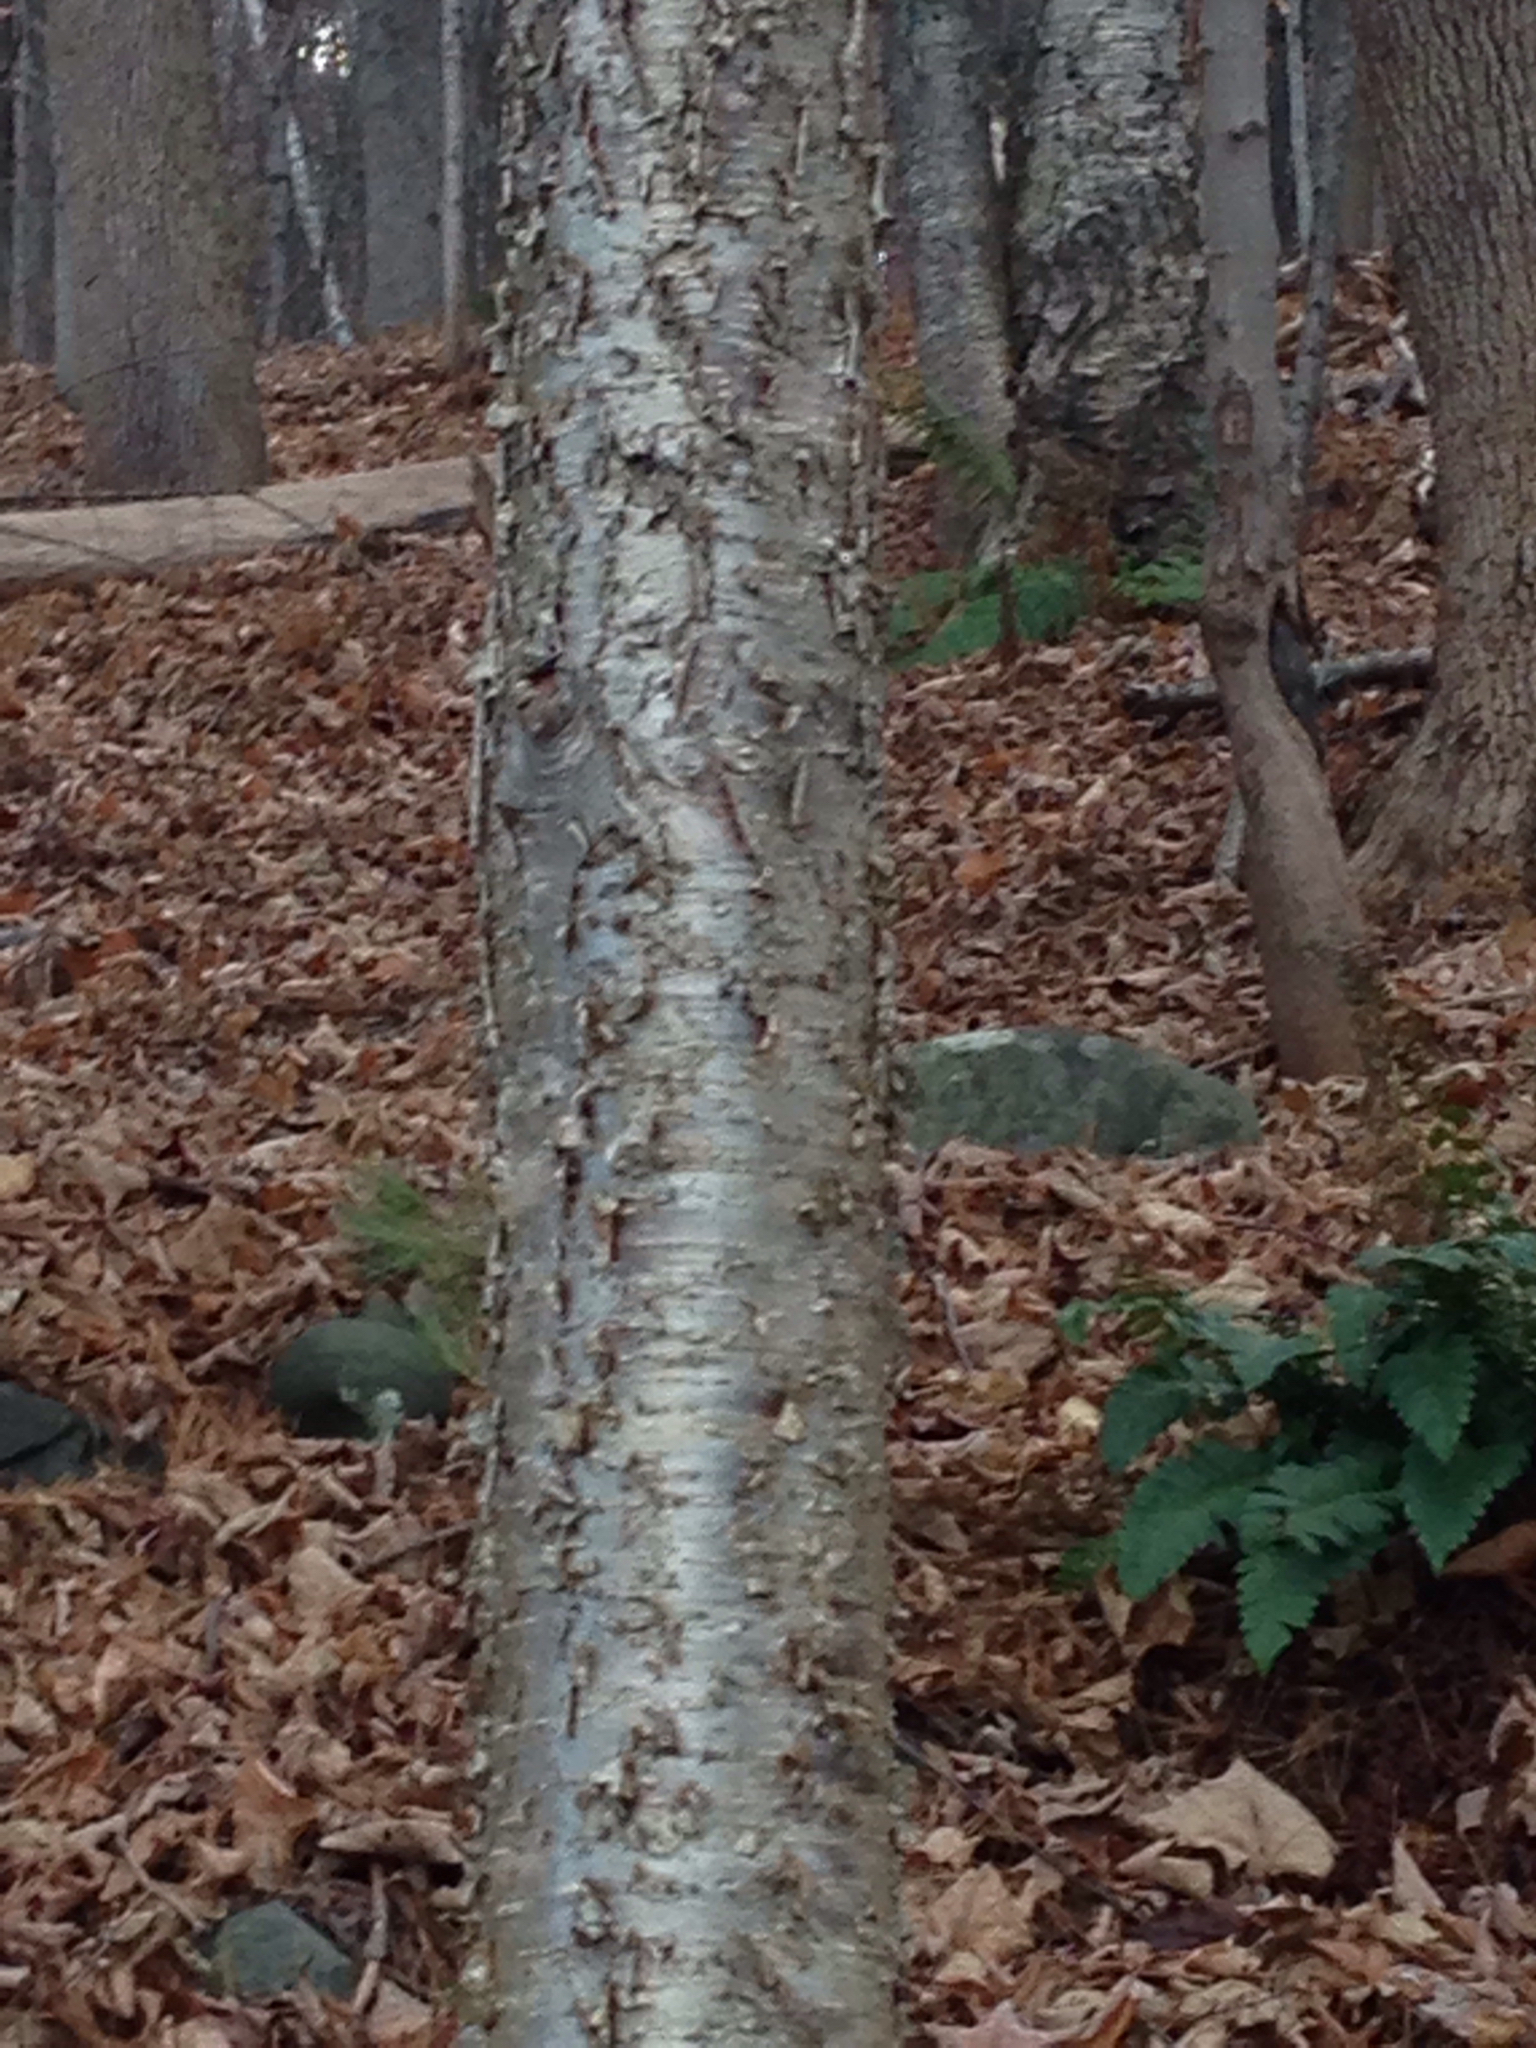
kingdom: Plantae
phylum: Tracheophyta
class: Magnoliopsida
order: Fagales
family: Betulaceae
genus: Betula
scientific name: Betula alleghaniensis
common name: Yellow birch
